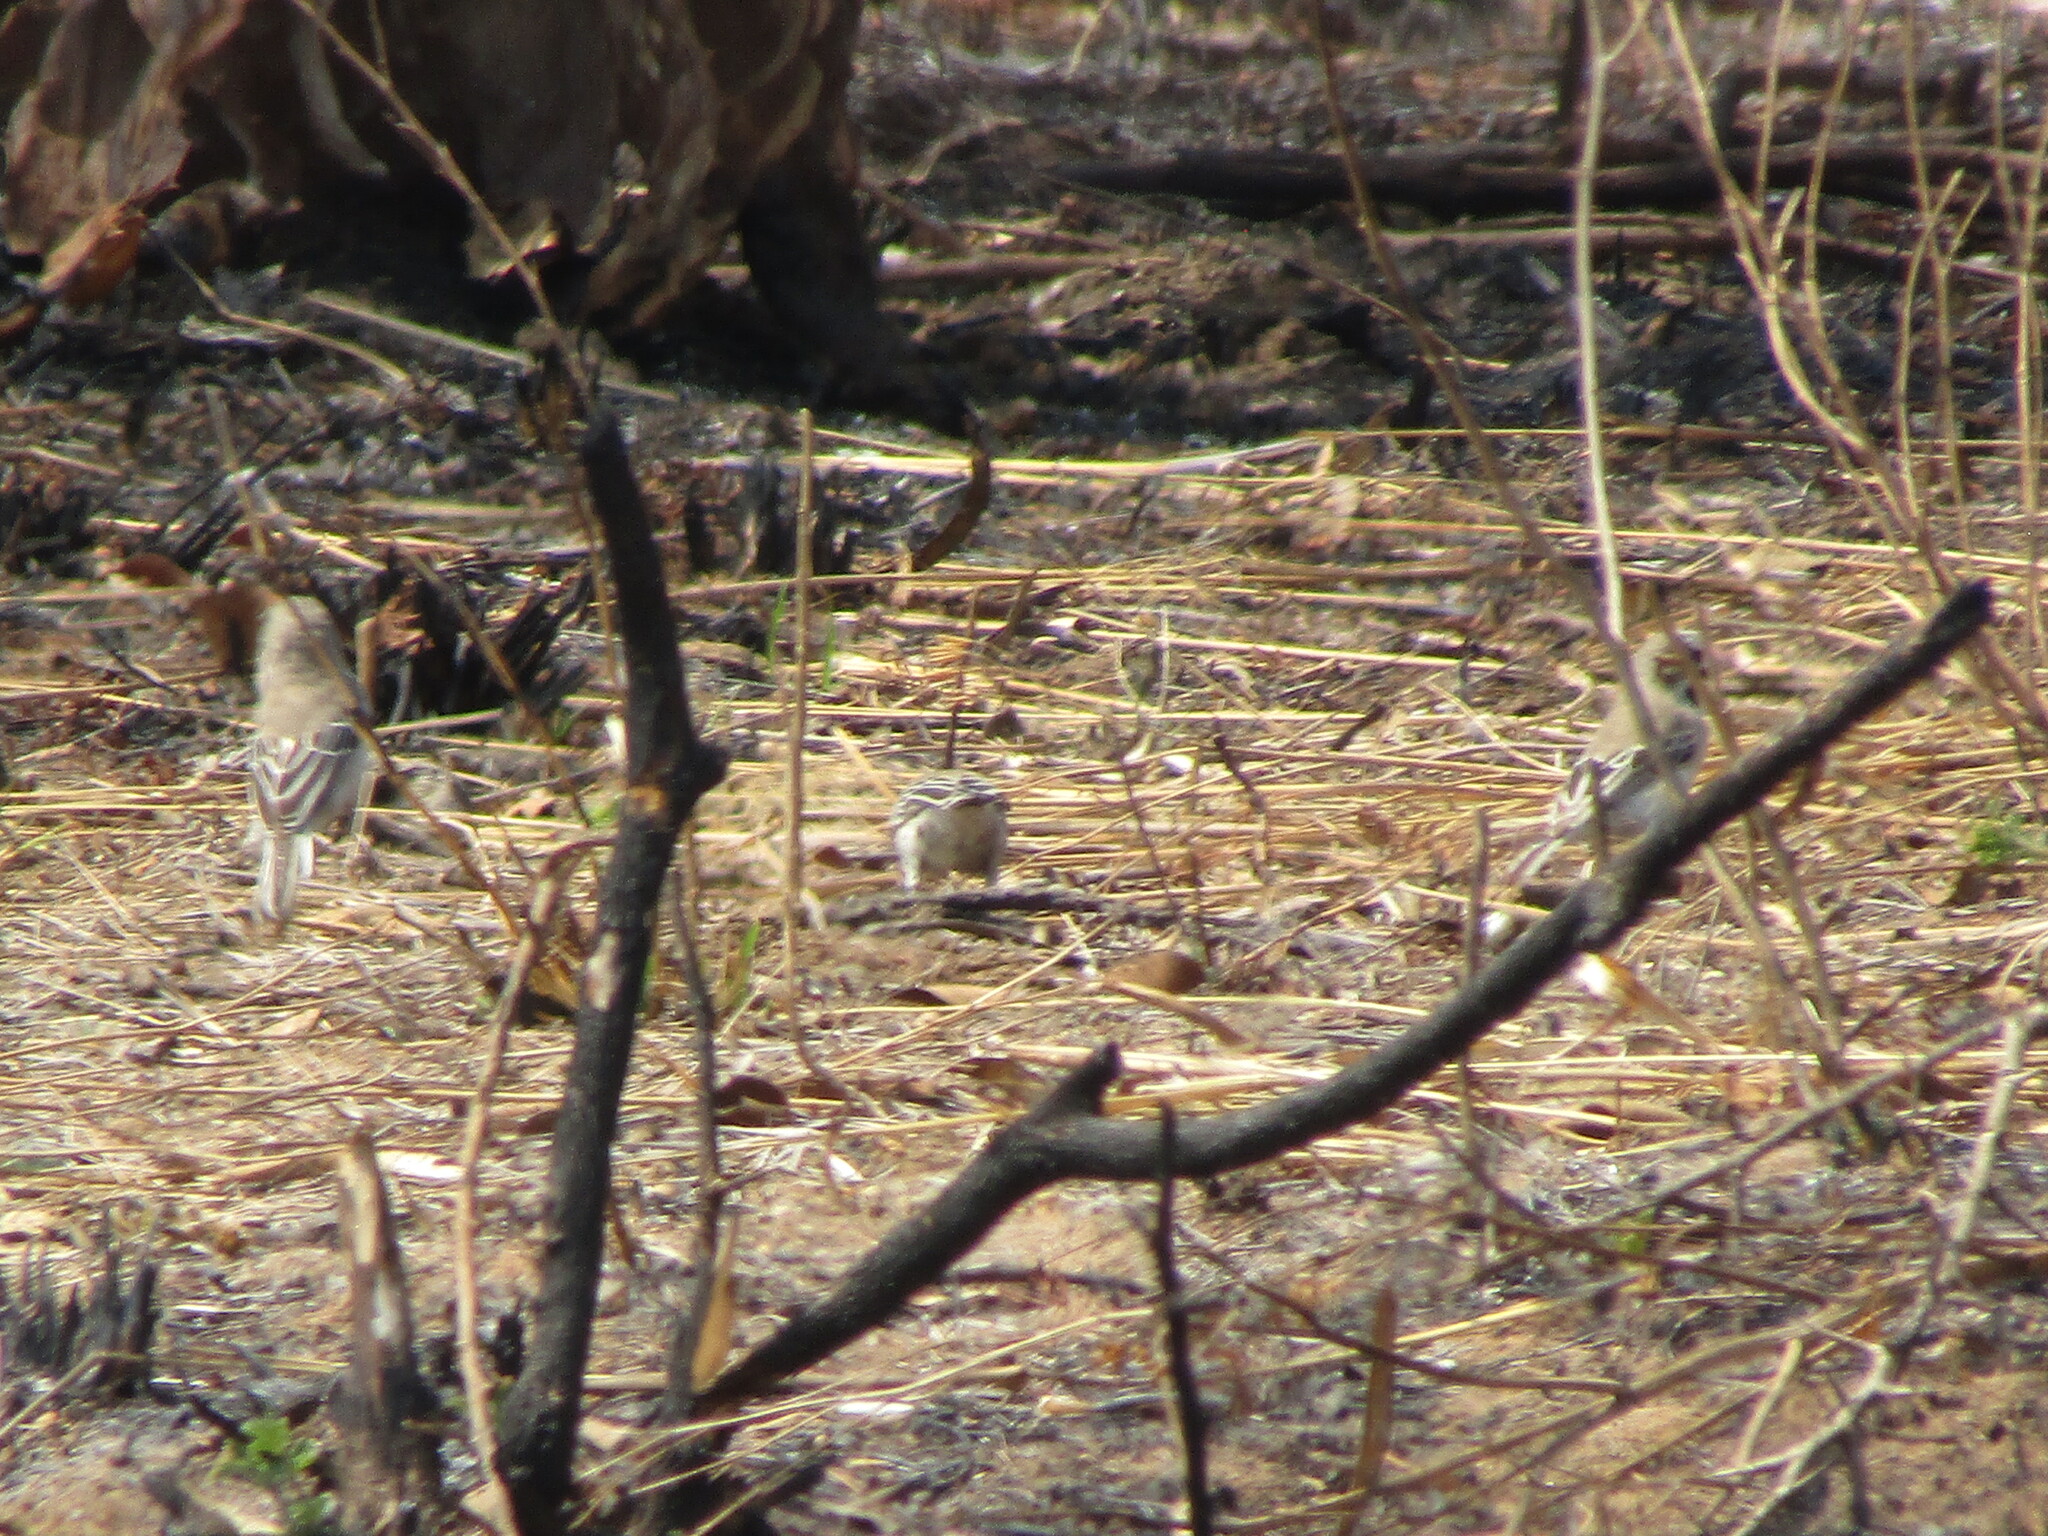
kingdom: Animalia
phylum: Chordata
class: Aves
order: Passeriformes
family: Ploceidae
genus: Sporopipes
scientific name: Sporopipes squamifrons
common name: Scaly-feathered weaver
